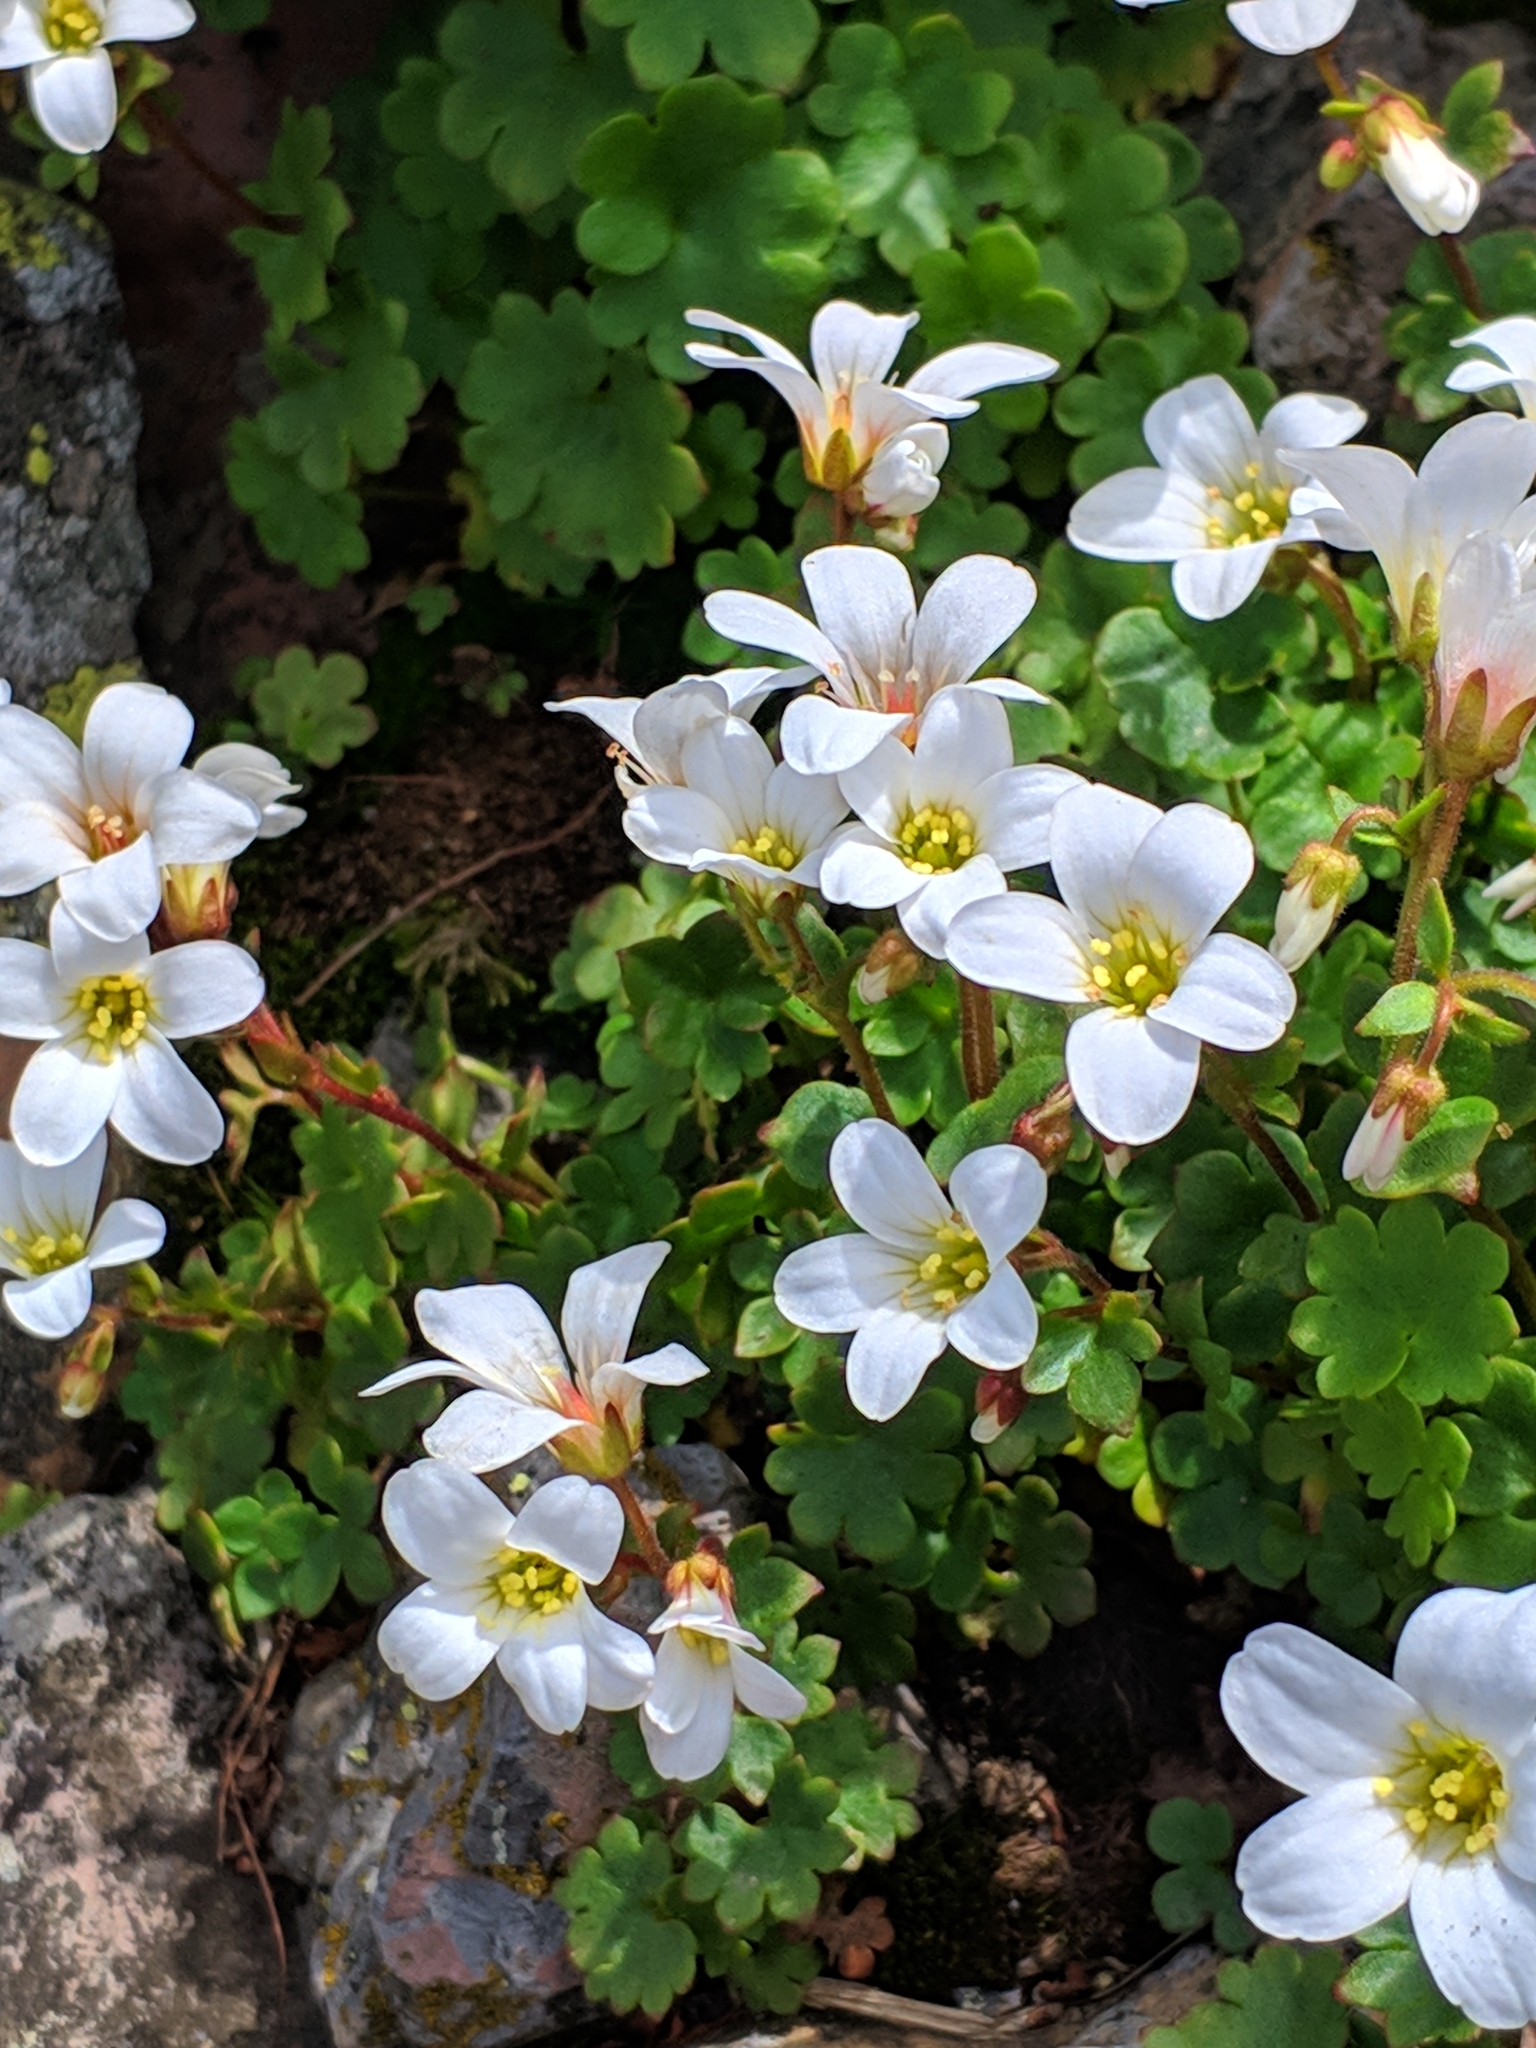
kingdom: Plantae
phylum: Tracheophyta
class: Magnoliopsida
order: Saxifragales
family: Saxifragaceae
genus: Saxifraga
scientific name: Saxifraga sibirica
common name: Siberian saxifrage
